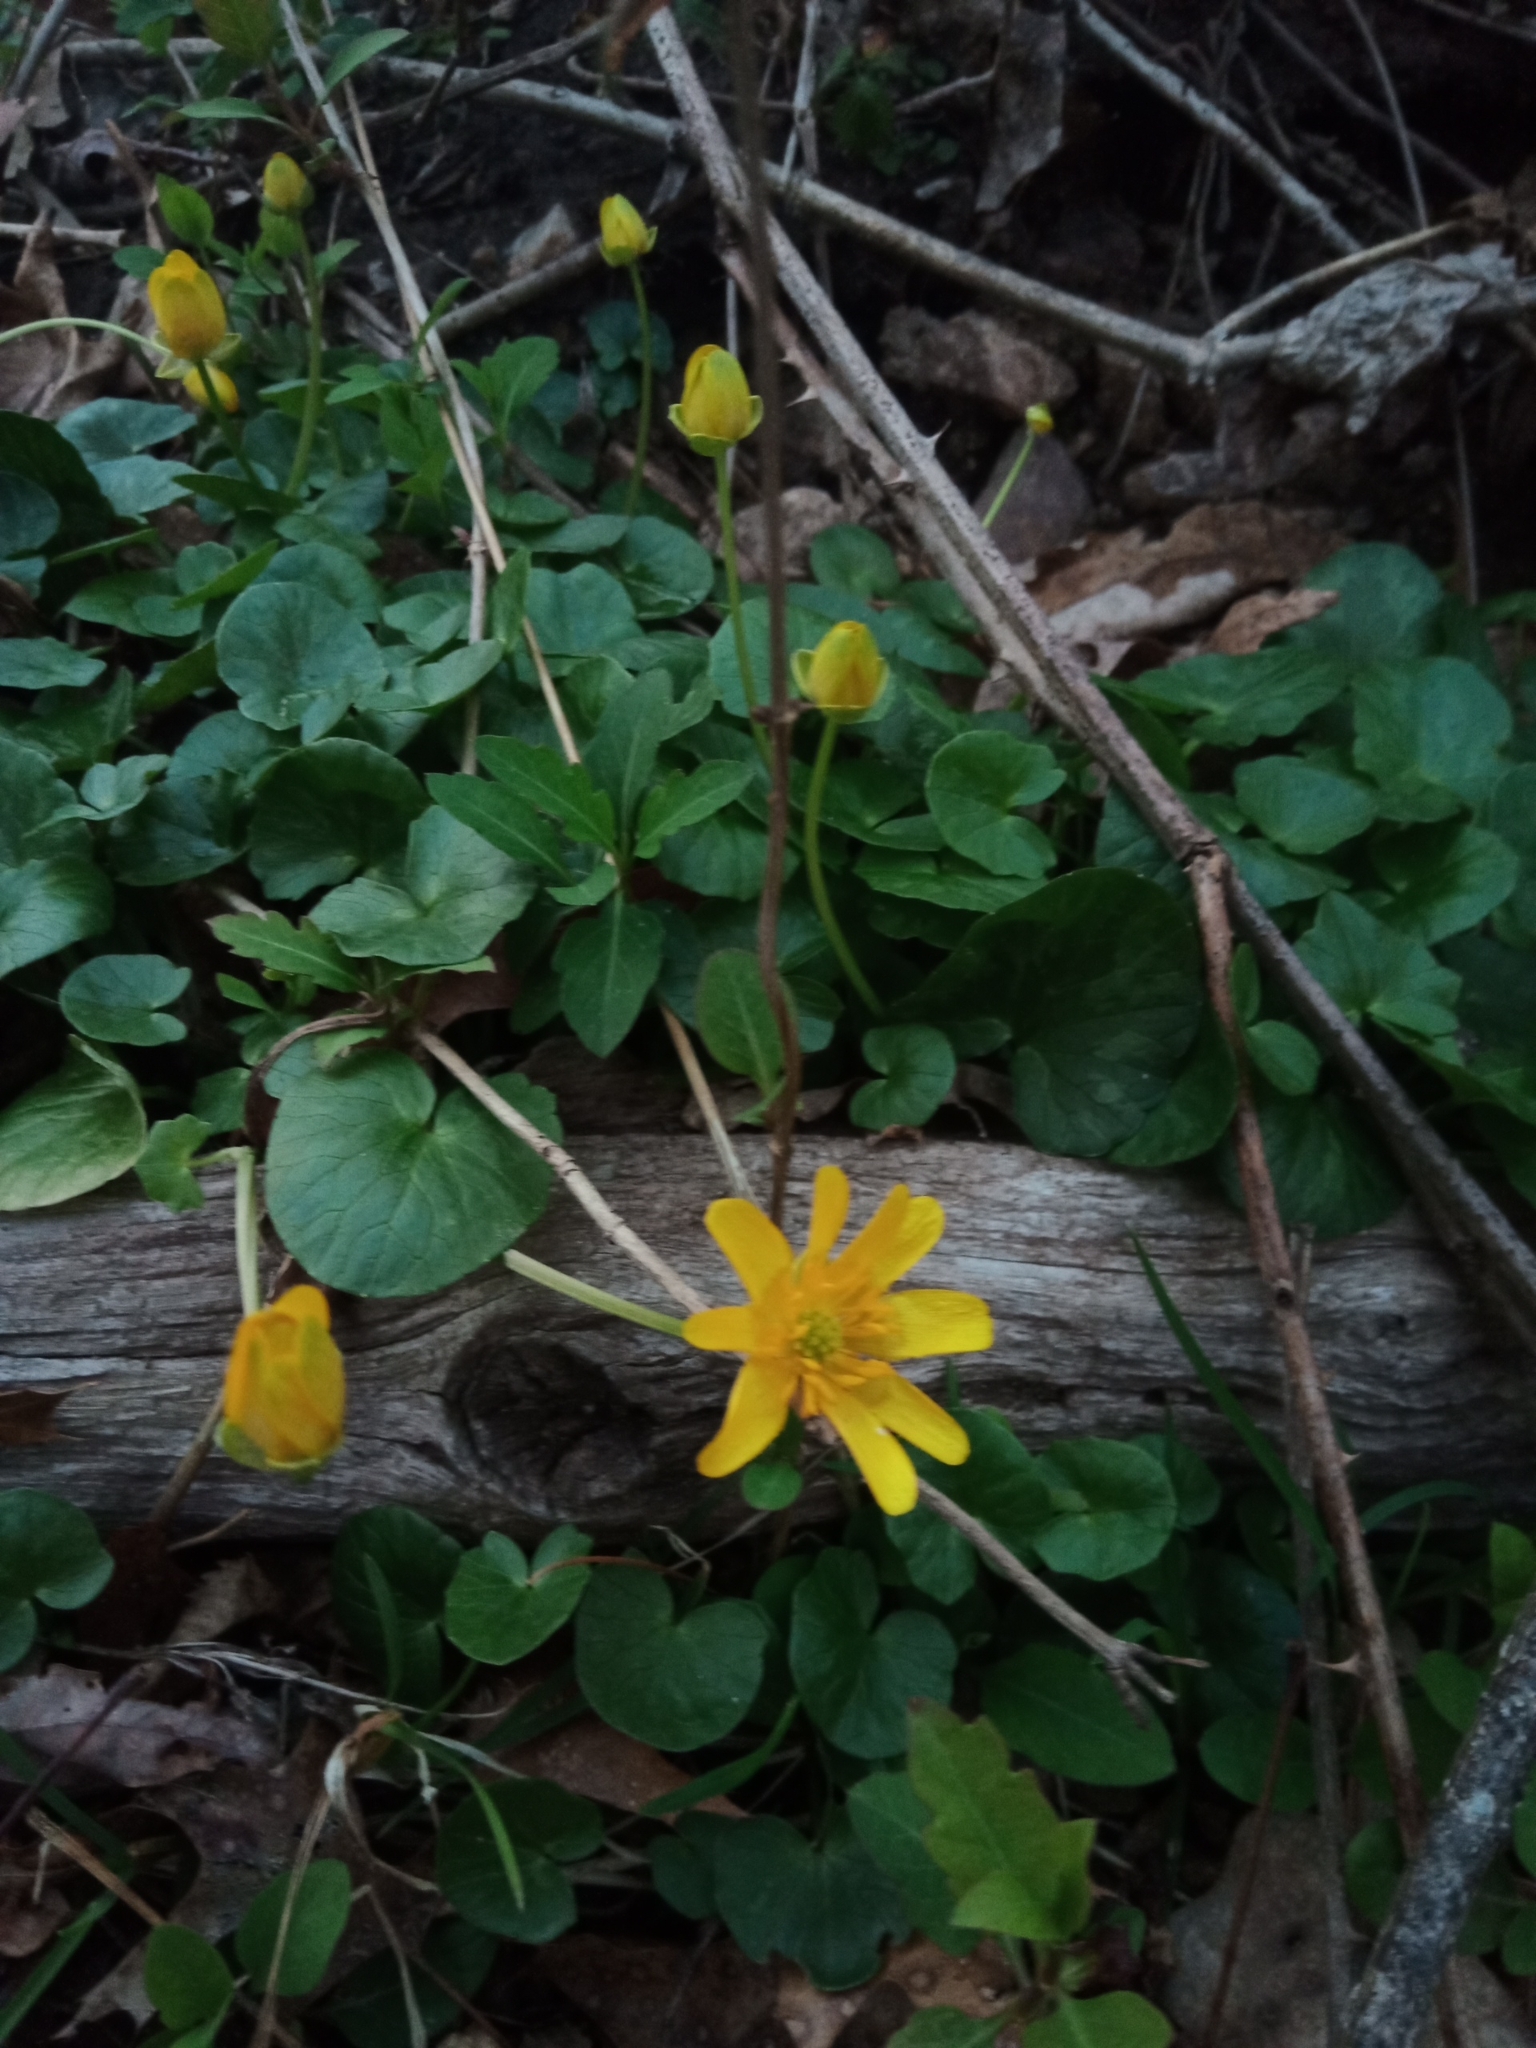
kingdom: Plantae
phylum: Tracheophyta
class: Magnoliopsida
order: Ranunculales
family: Ranunculaceae
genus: Ficaria
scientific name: Ficaria verna
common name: Lesser celandine
